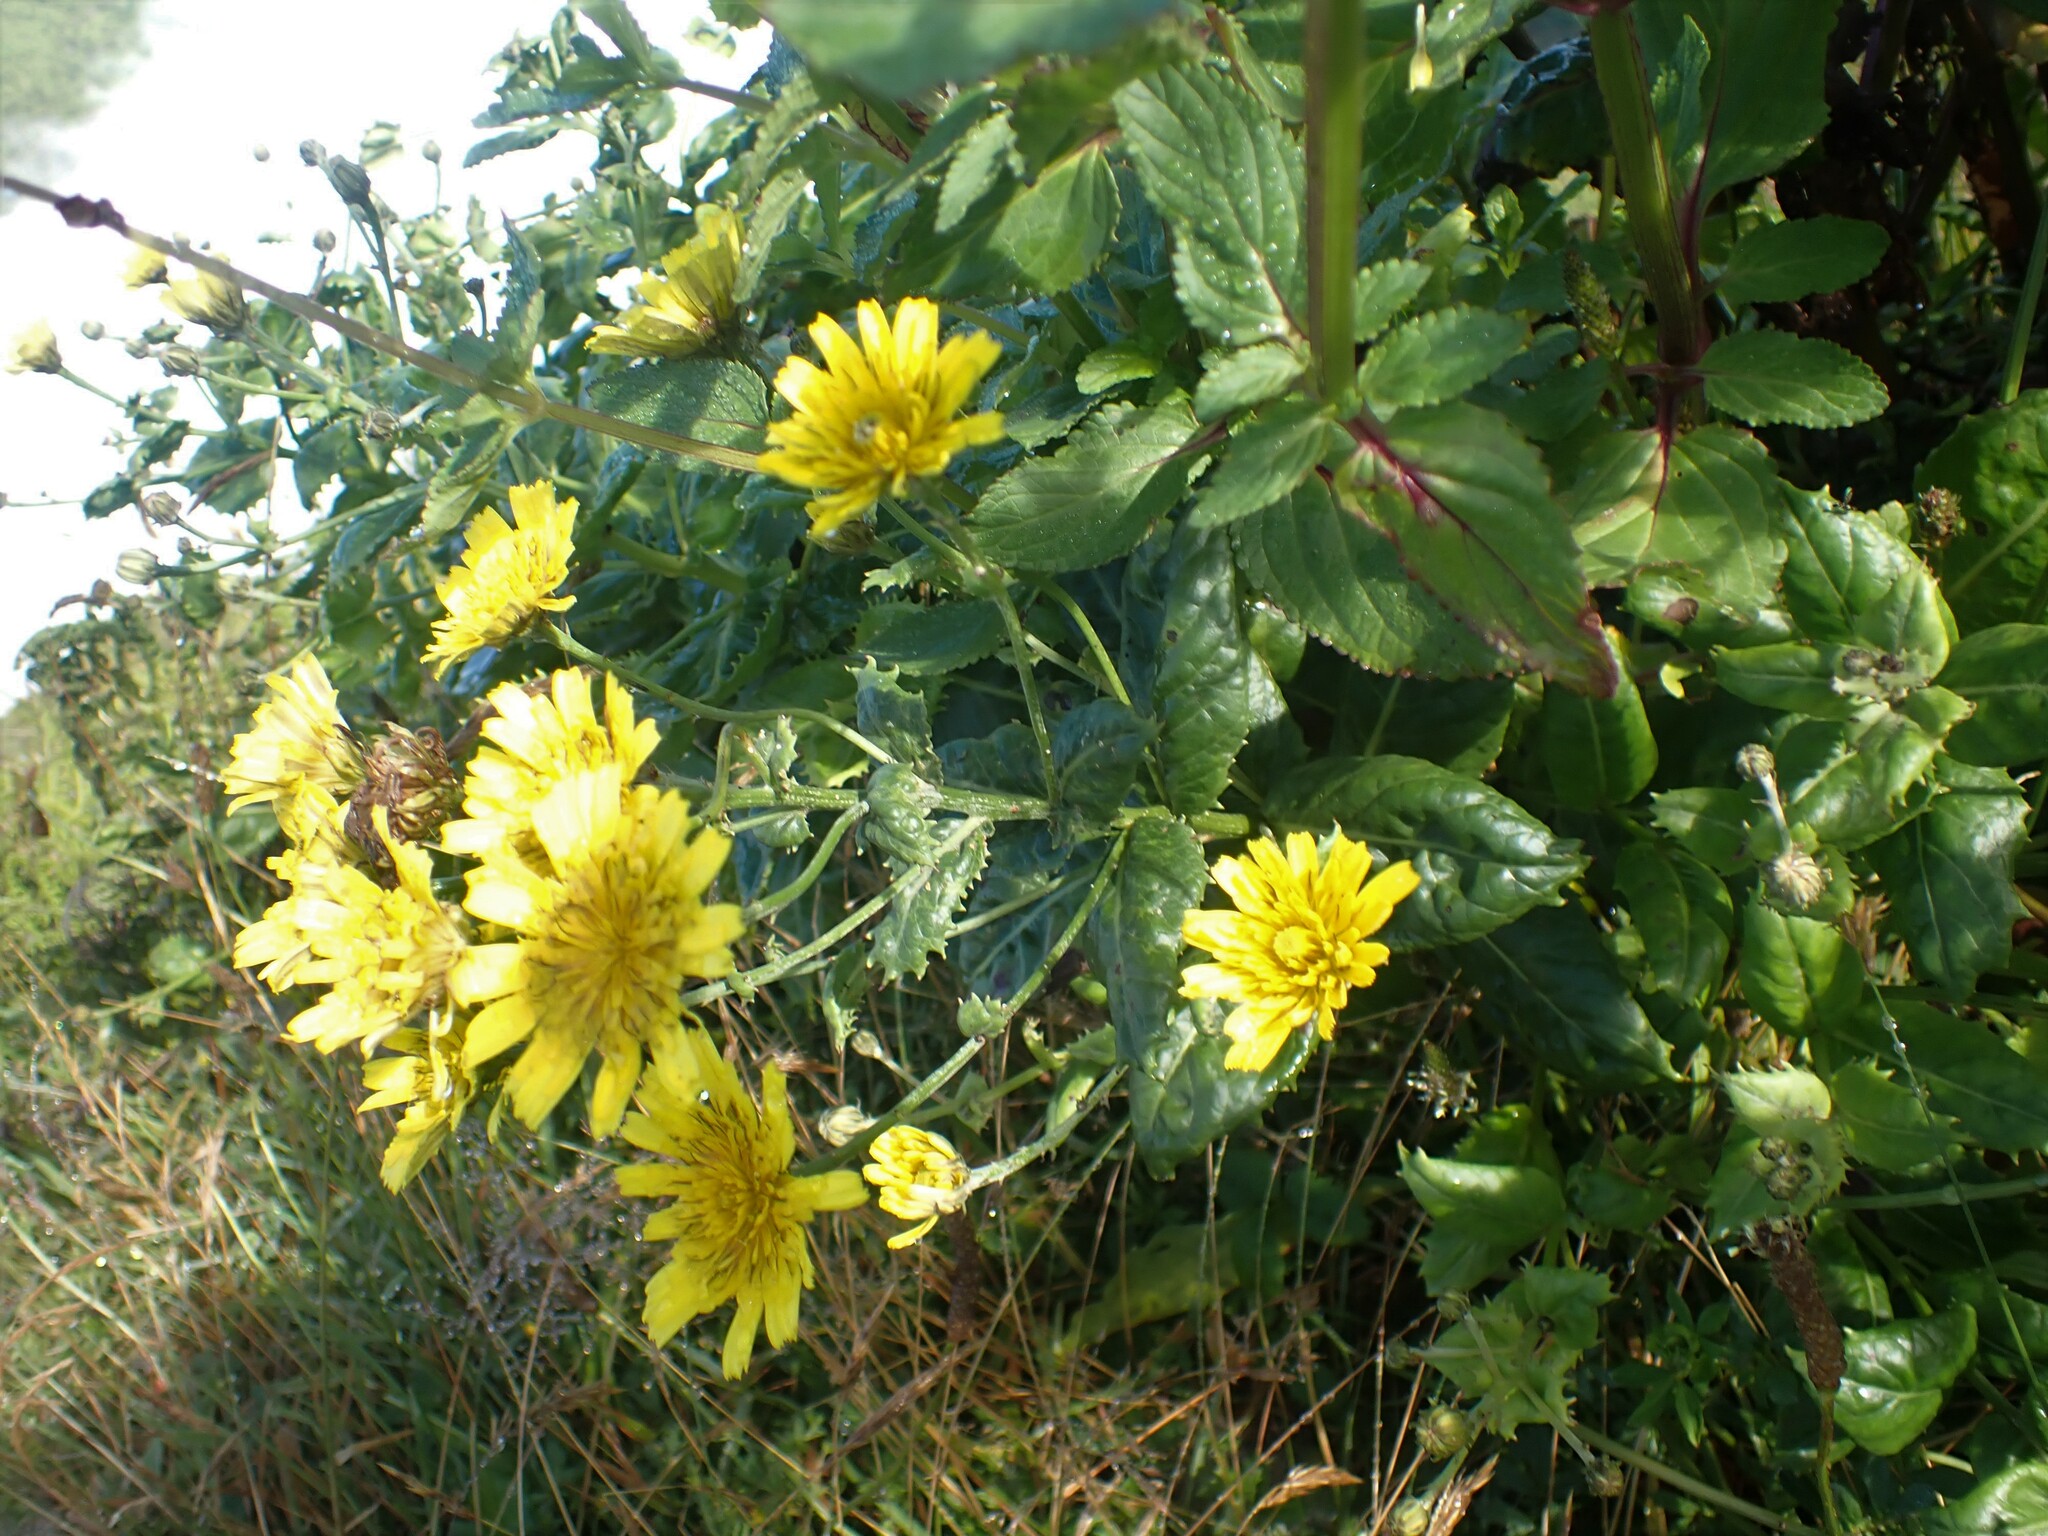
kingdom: Plantae
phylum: Tracheophyta
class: Magnoliopsida
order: Asterales
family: Asteraceae
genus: Tolpis
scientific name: Tolpis azorica
